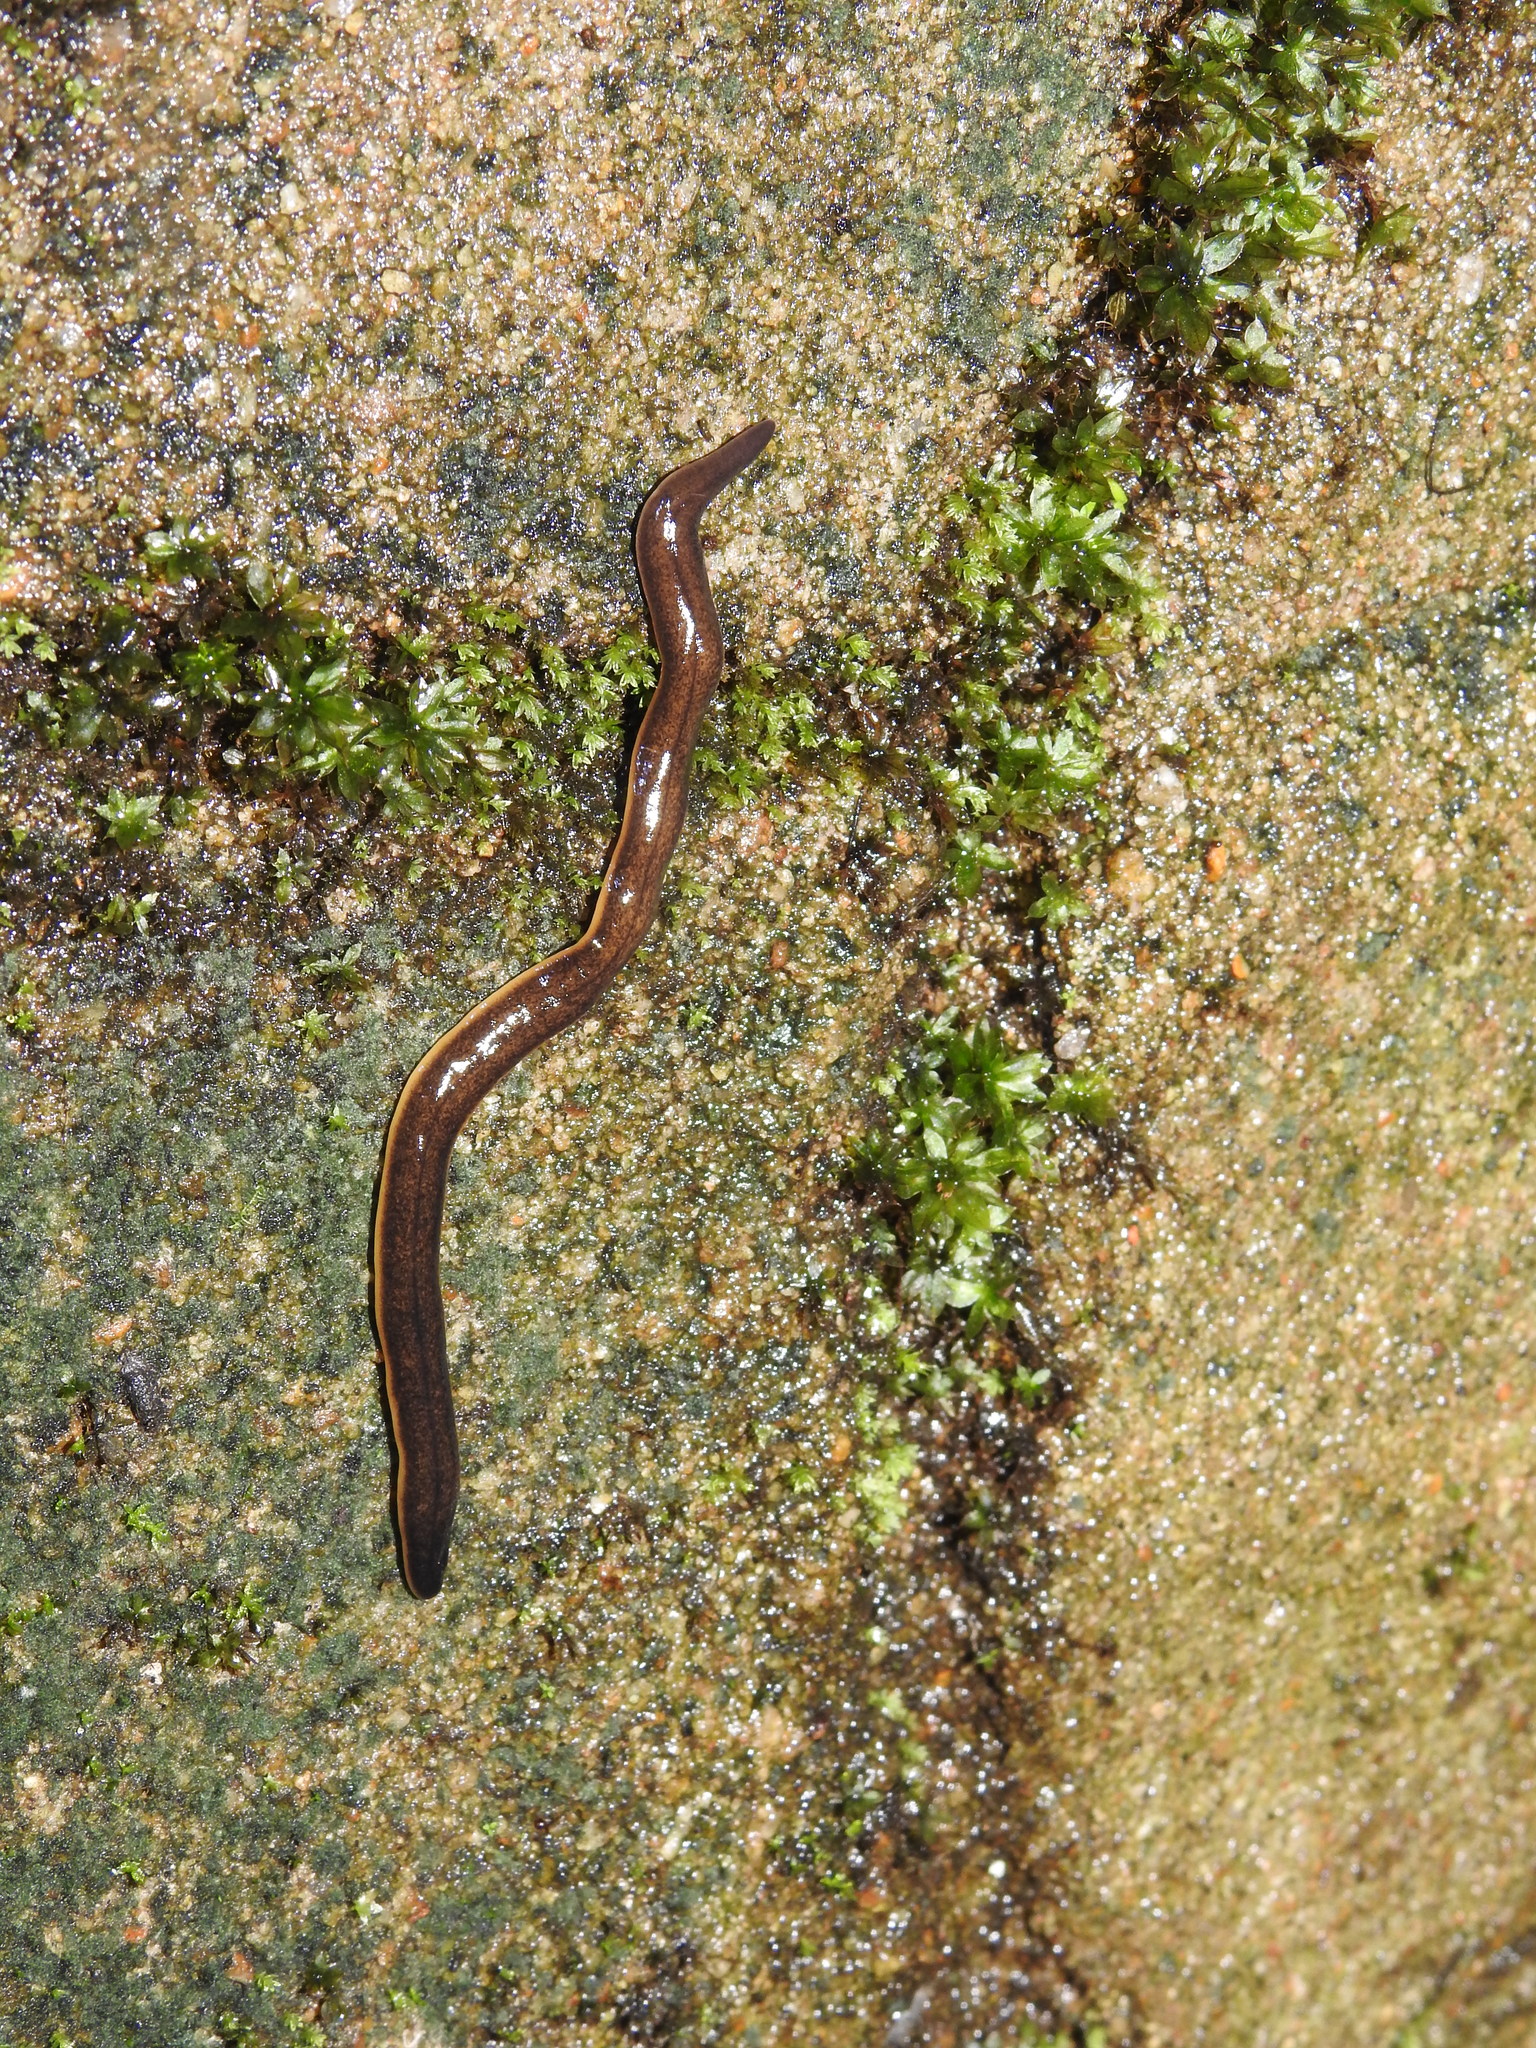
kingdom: Animalia
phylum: Platyhelminthes
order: Tricladida
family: Geoplanidae
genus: Incapora
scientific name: Incapora anamallensis
